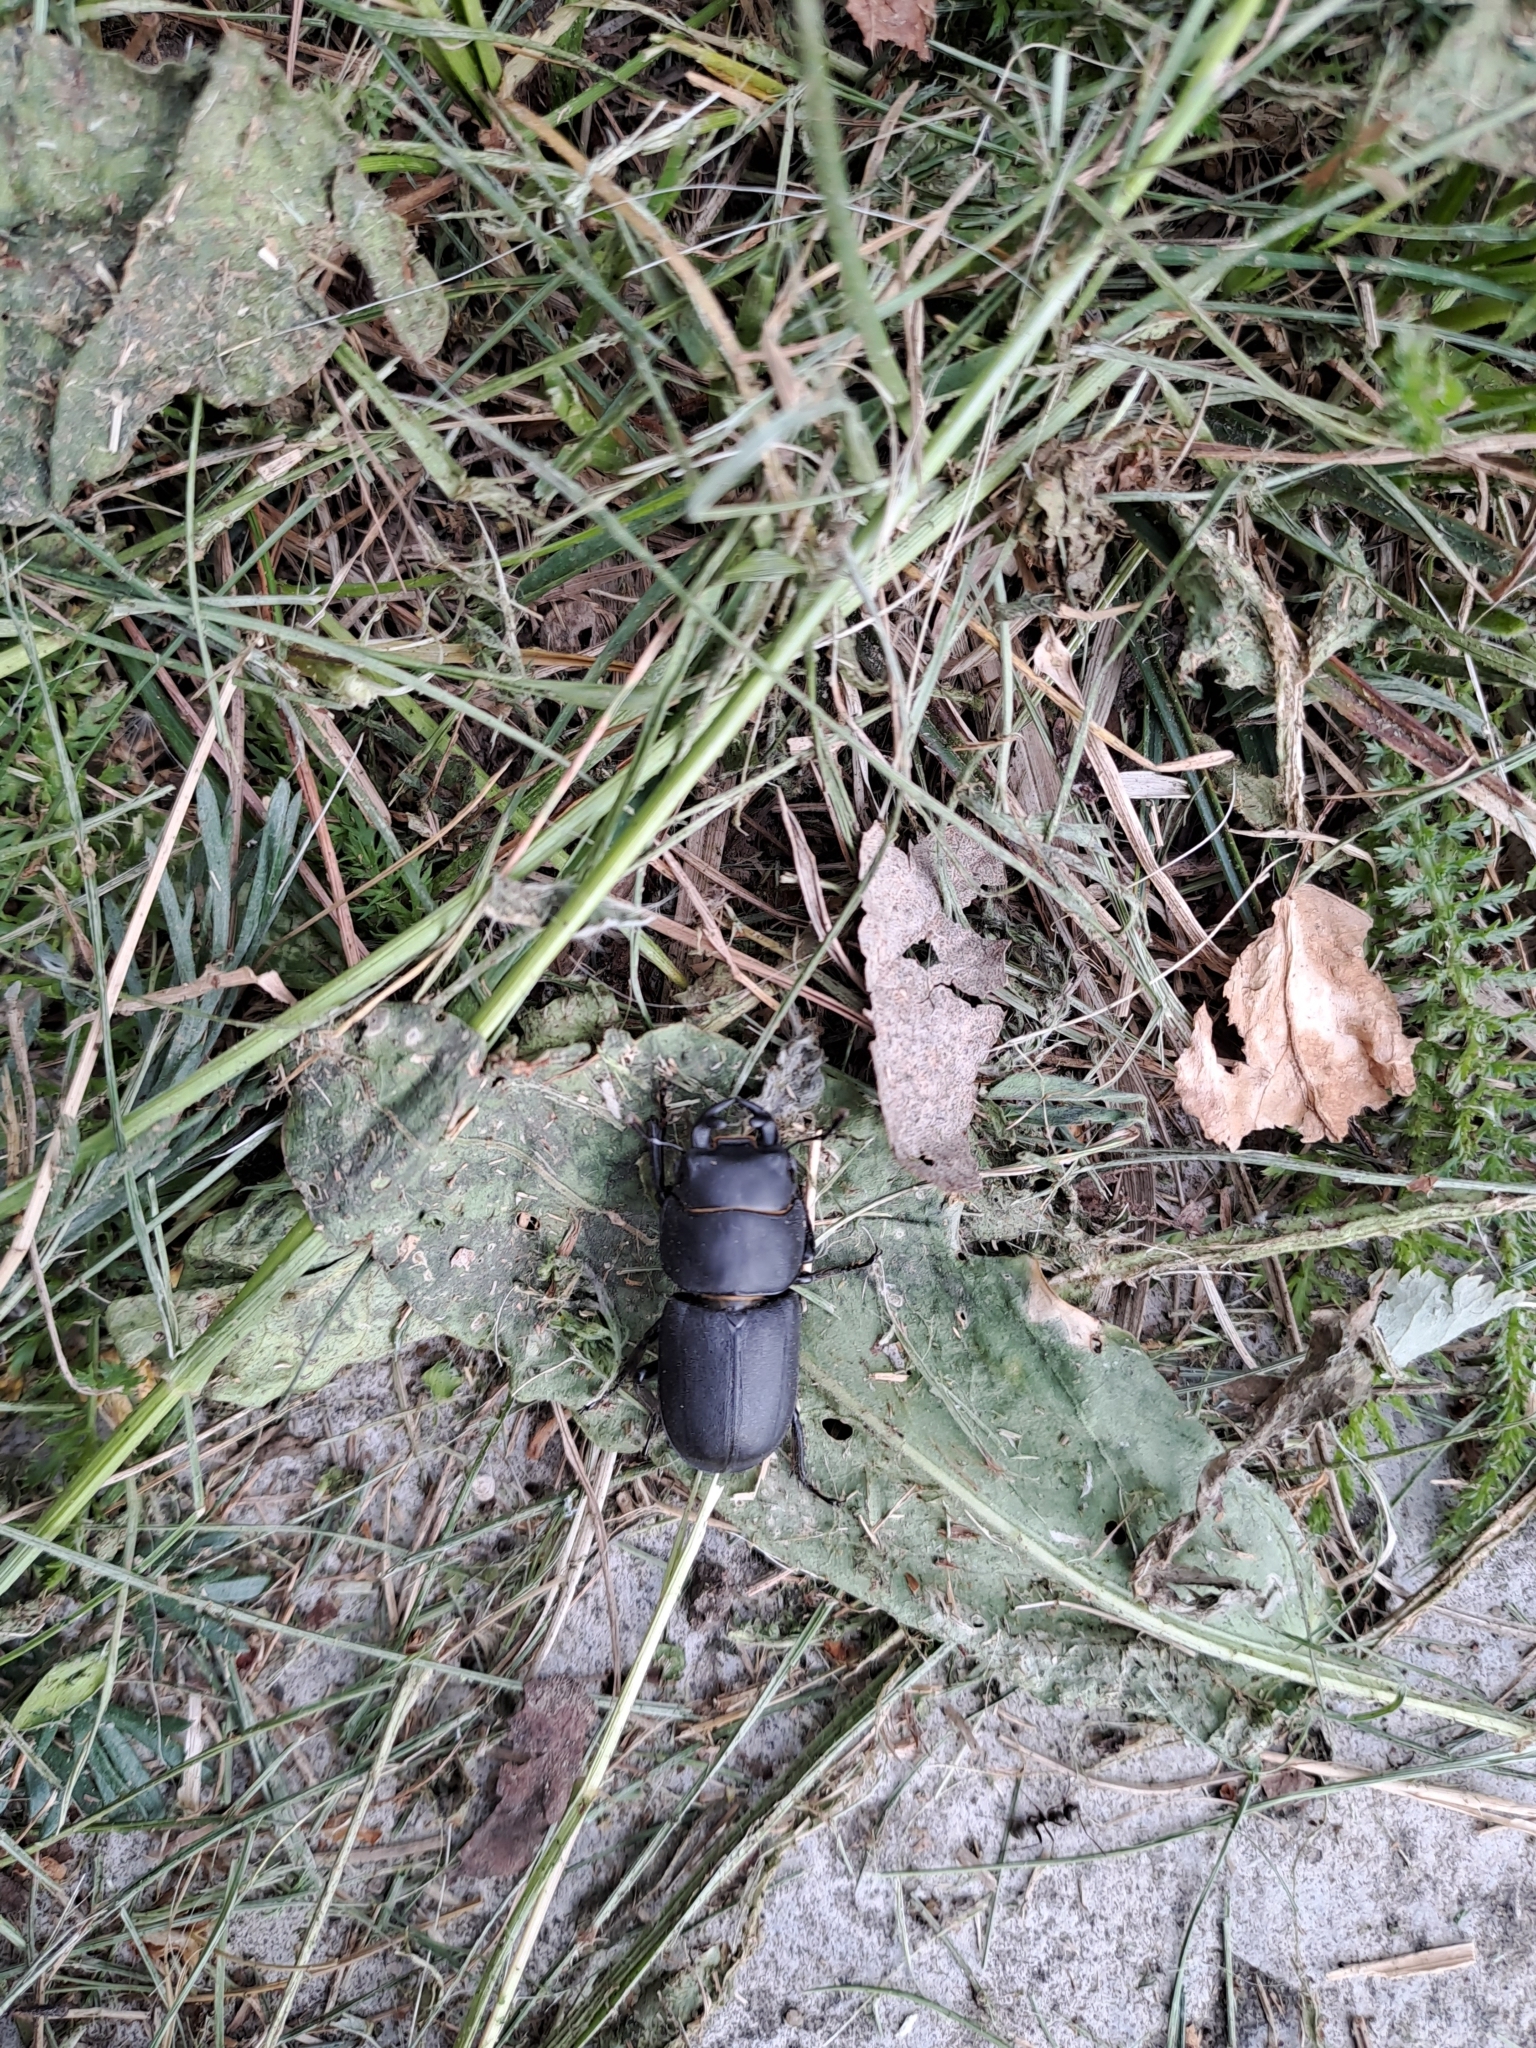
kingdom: Animalia
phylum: Arthropoda
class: Insecta
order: Coleoptera
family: Lucanidae
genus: Dorcus
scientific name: Dorcus parallelipipedus
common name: Lesser stag beetle
